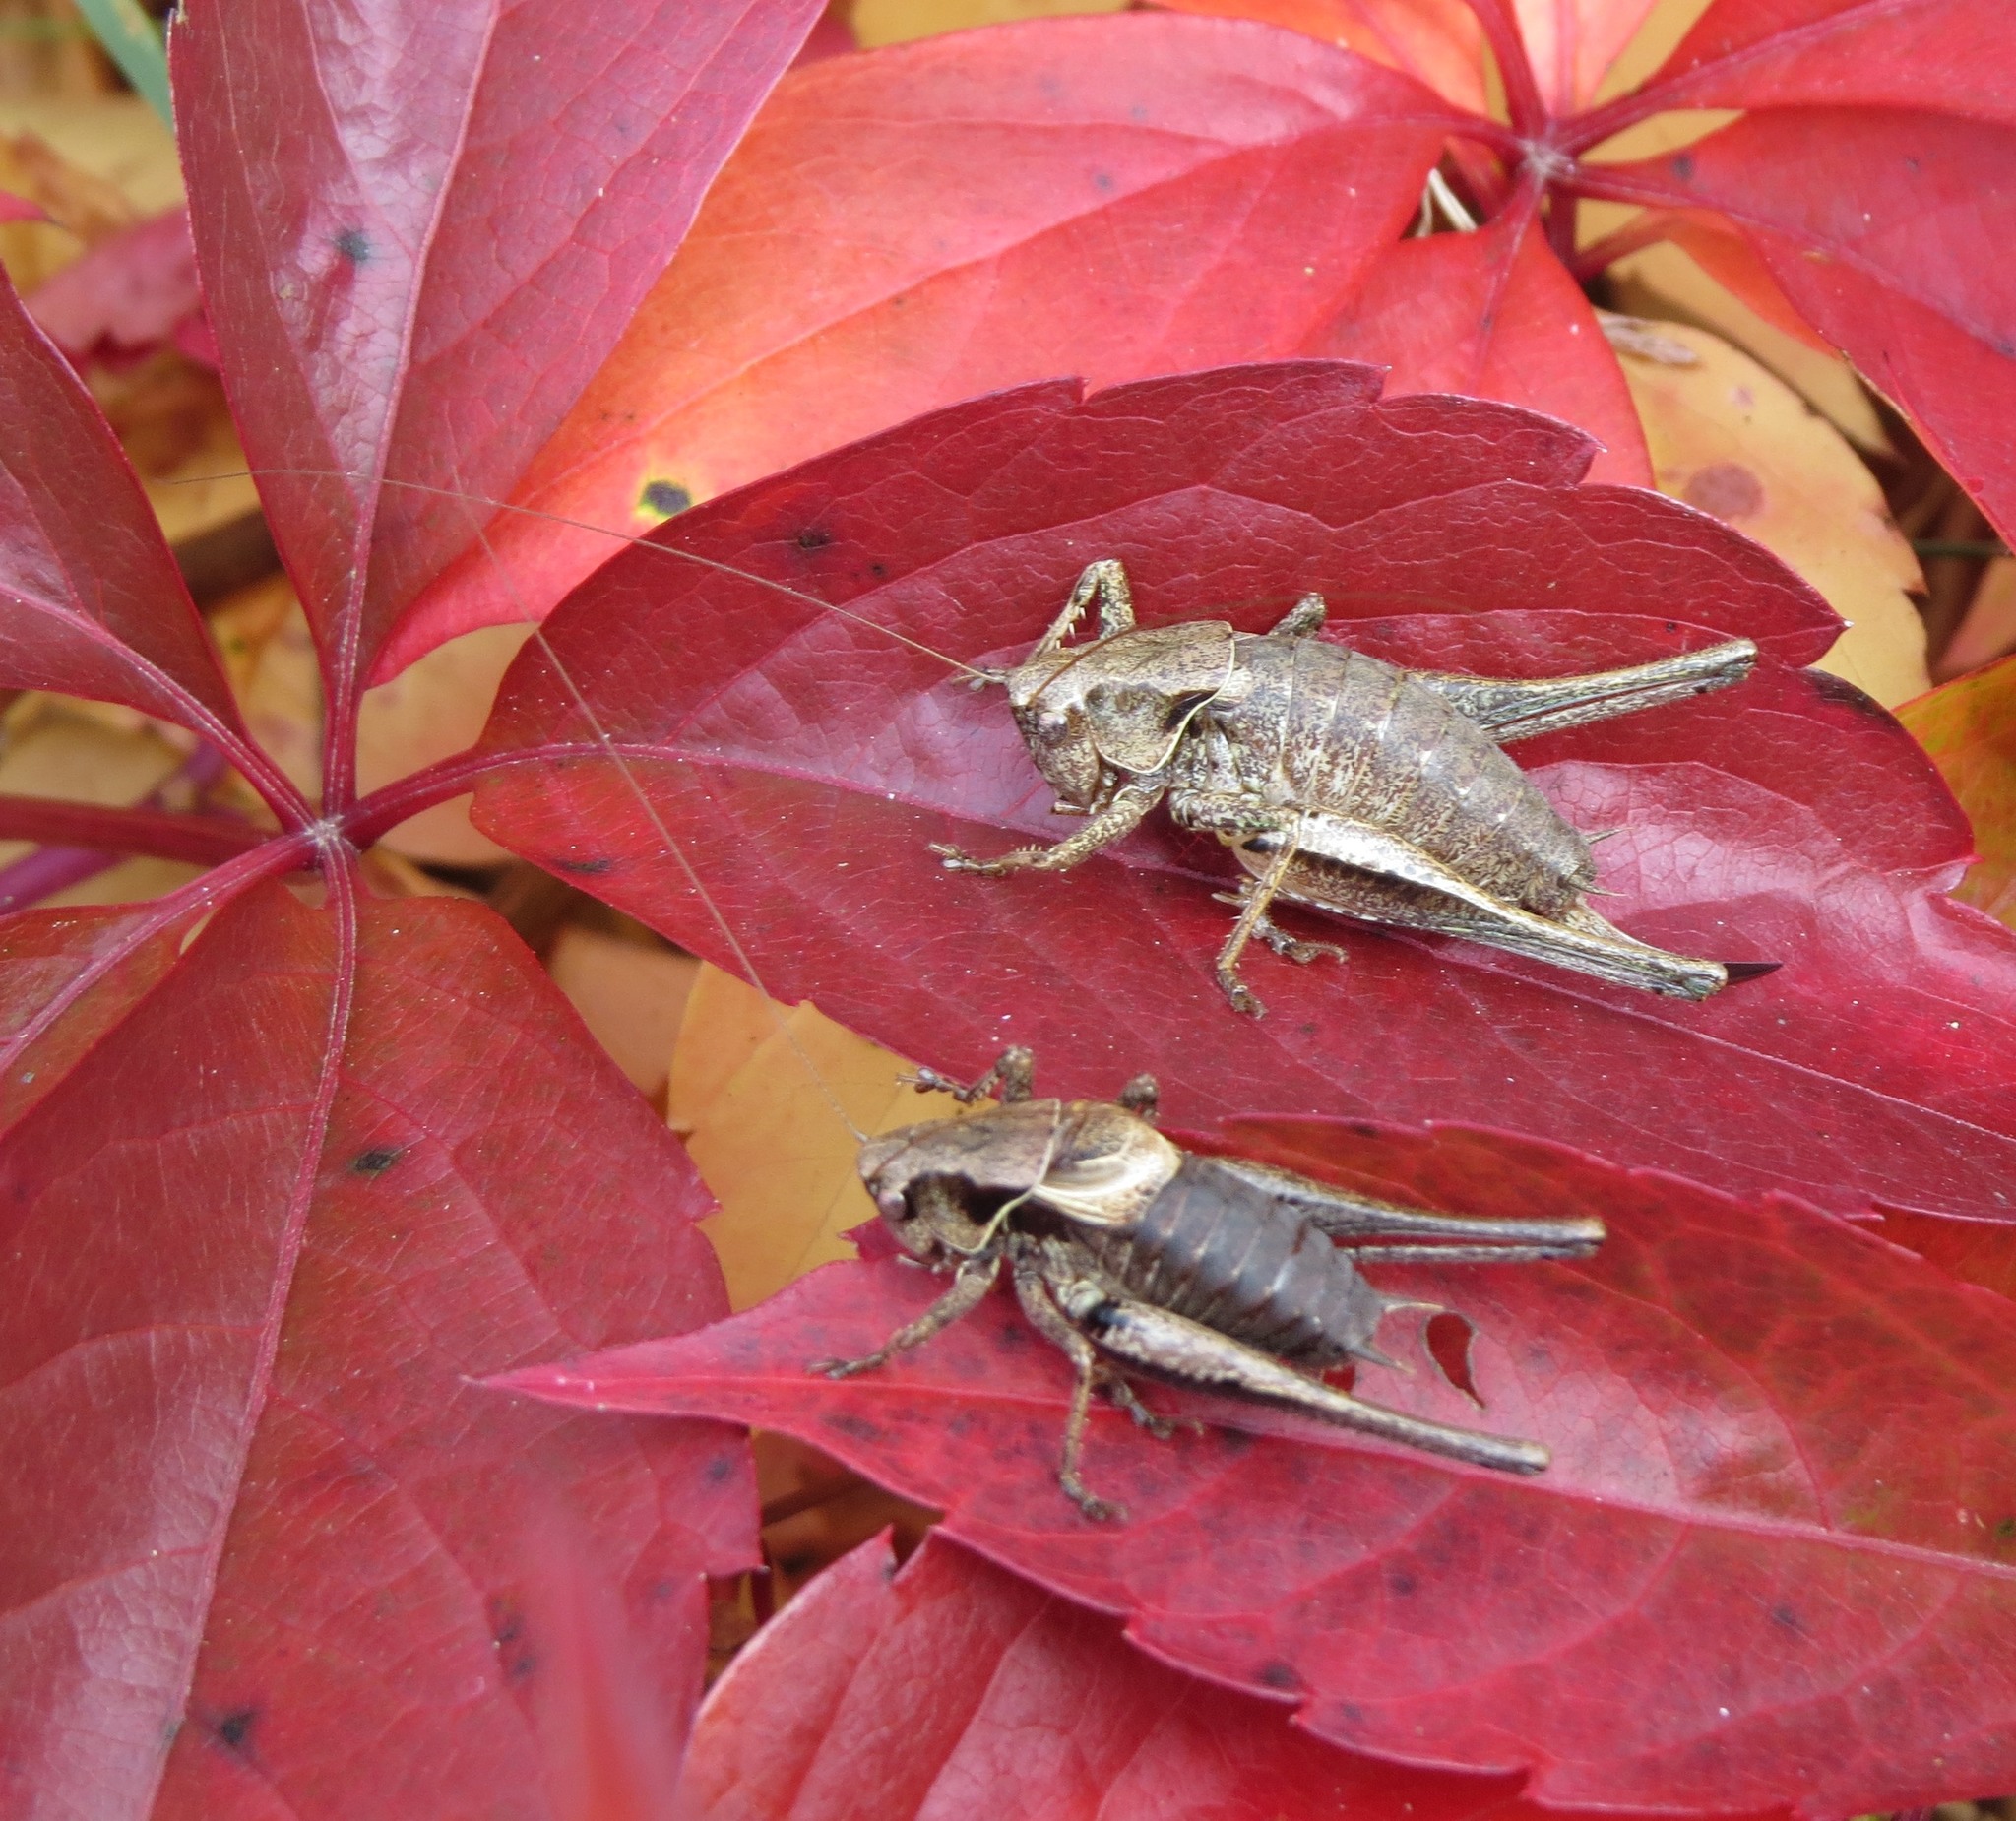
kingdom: Animalia
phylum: Arthropoda
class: Insecta
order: Orthoptera
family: Tettigoniidae
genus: Pholidoptera
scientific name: Pholidoptera griseoaptera
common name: Dark bush-cricket
